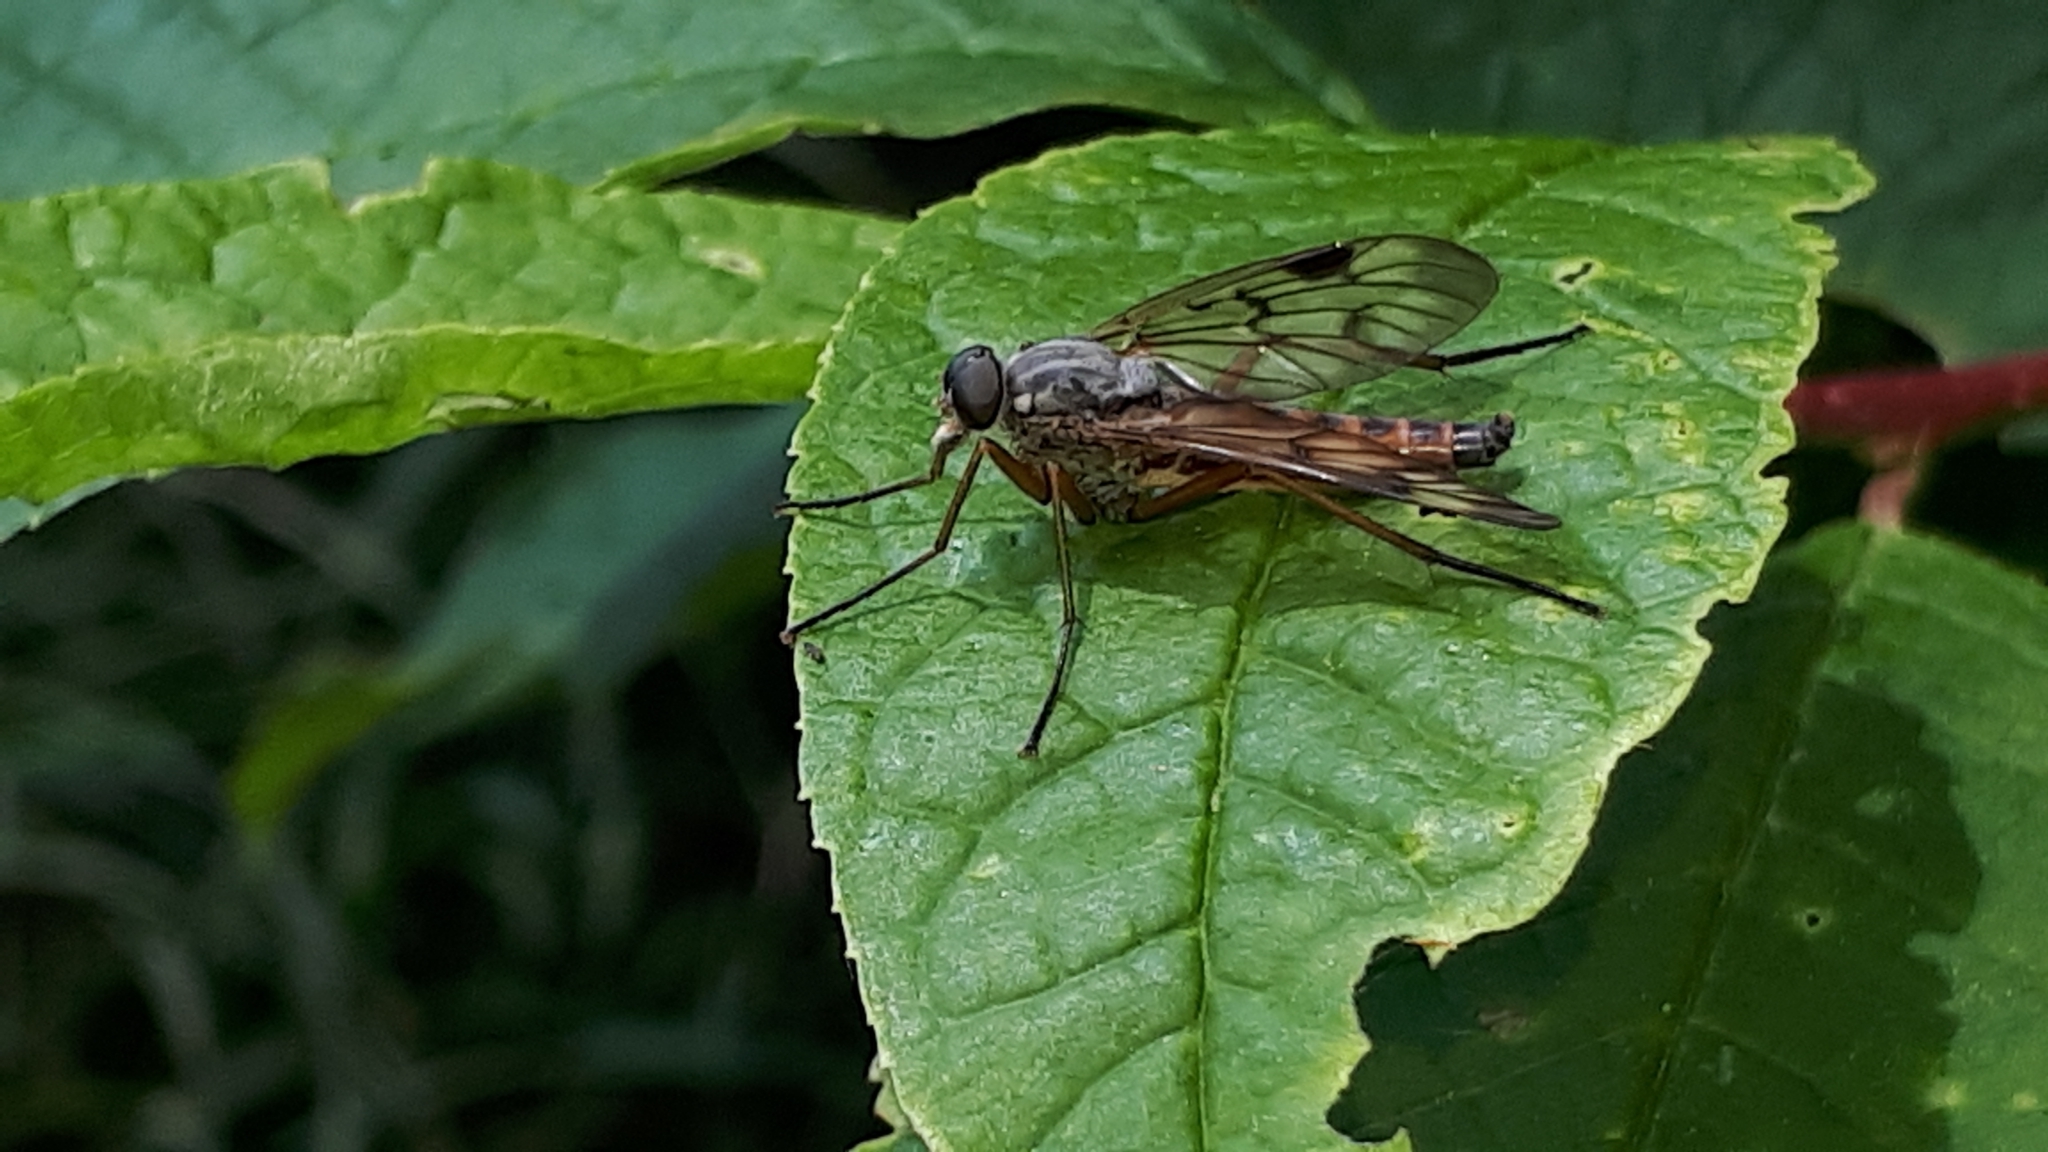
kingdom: Animalia
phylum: Arthropoda
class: Insecta
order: Diptera
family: Rhagionidae
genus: Rhagio
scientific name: Rhagio scolopacea
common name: Downlooker snipefly
